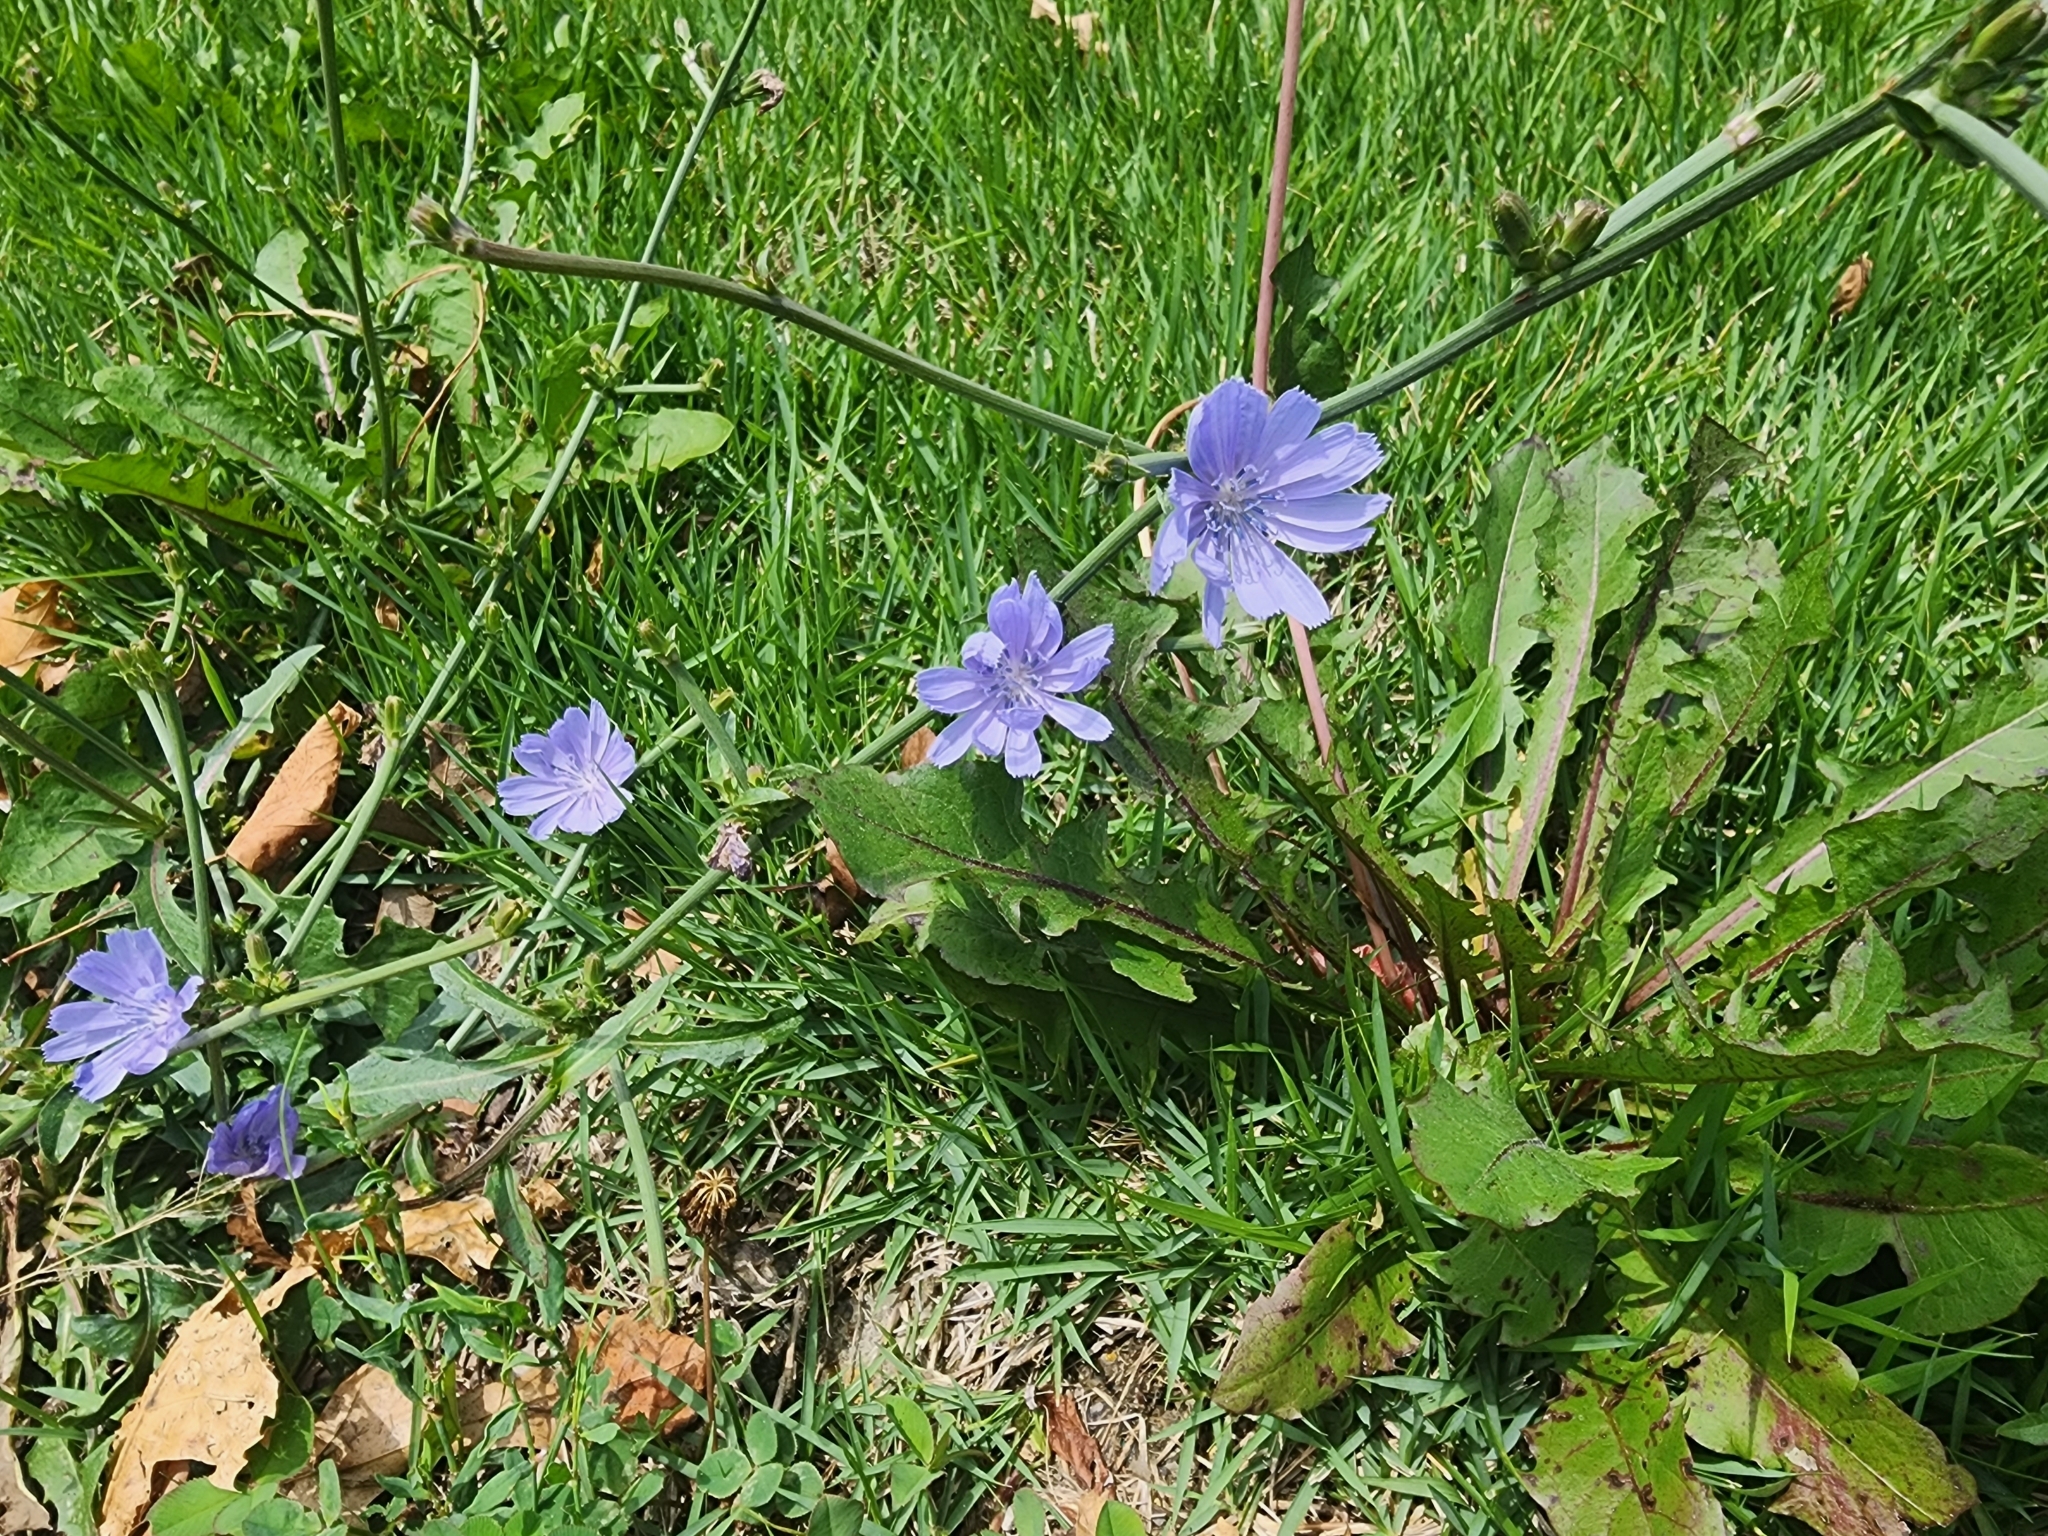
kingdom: Plantae
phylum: Tracheophyta
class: Magnoliopsida
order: Asterales
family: Asteraceae
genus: Cichorium
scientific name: Cichorium intybus
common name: Chicory
